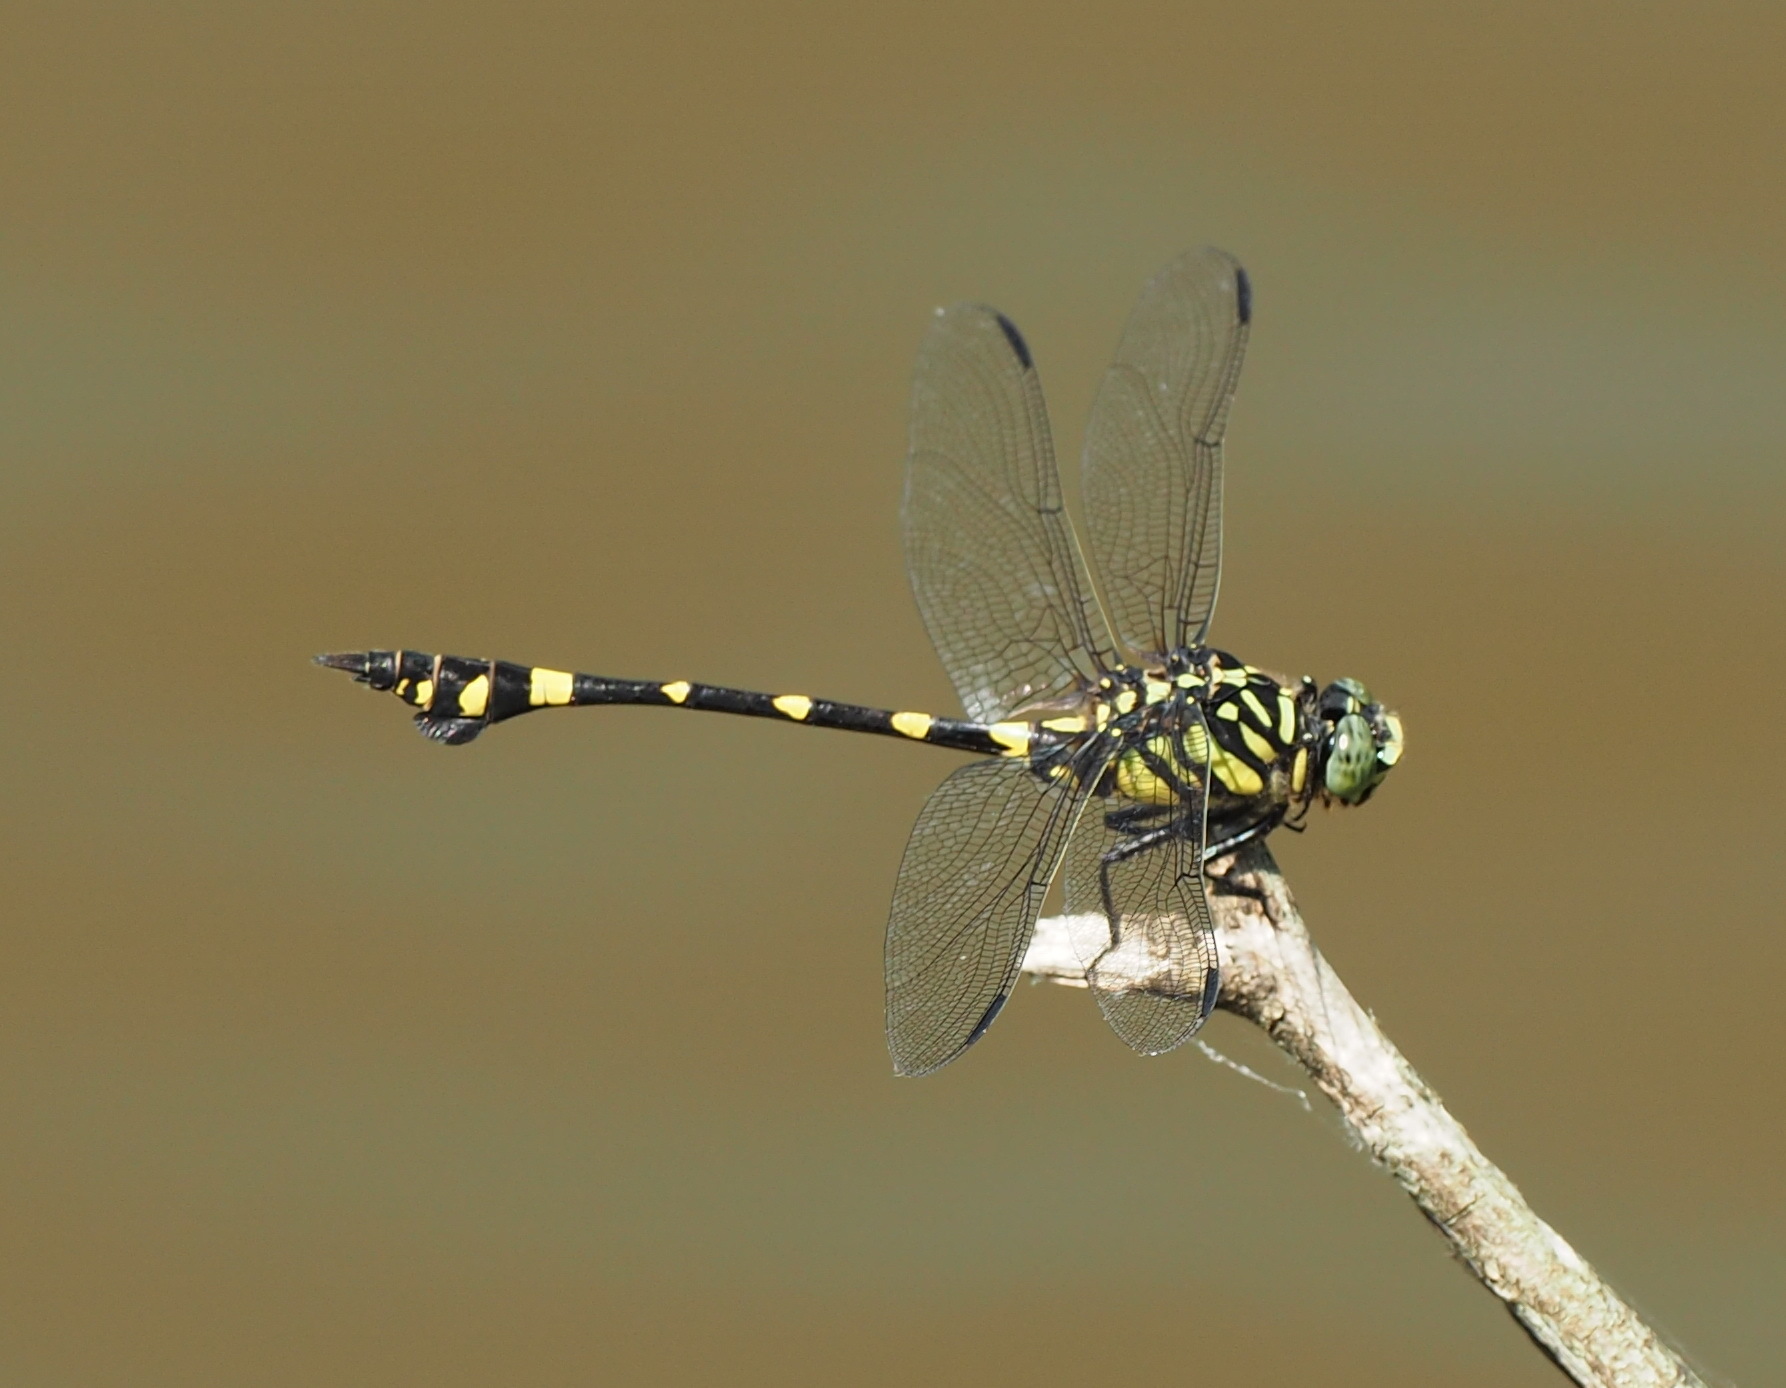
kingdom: Animalia
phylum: Arthropoda
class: Insecta
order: Odonata
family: Gomphidae
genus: Ictinogomphus
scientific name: Ictinogomphus rapax
